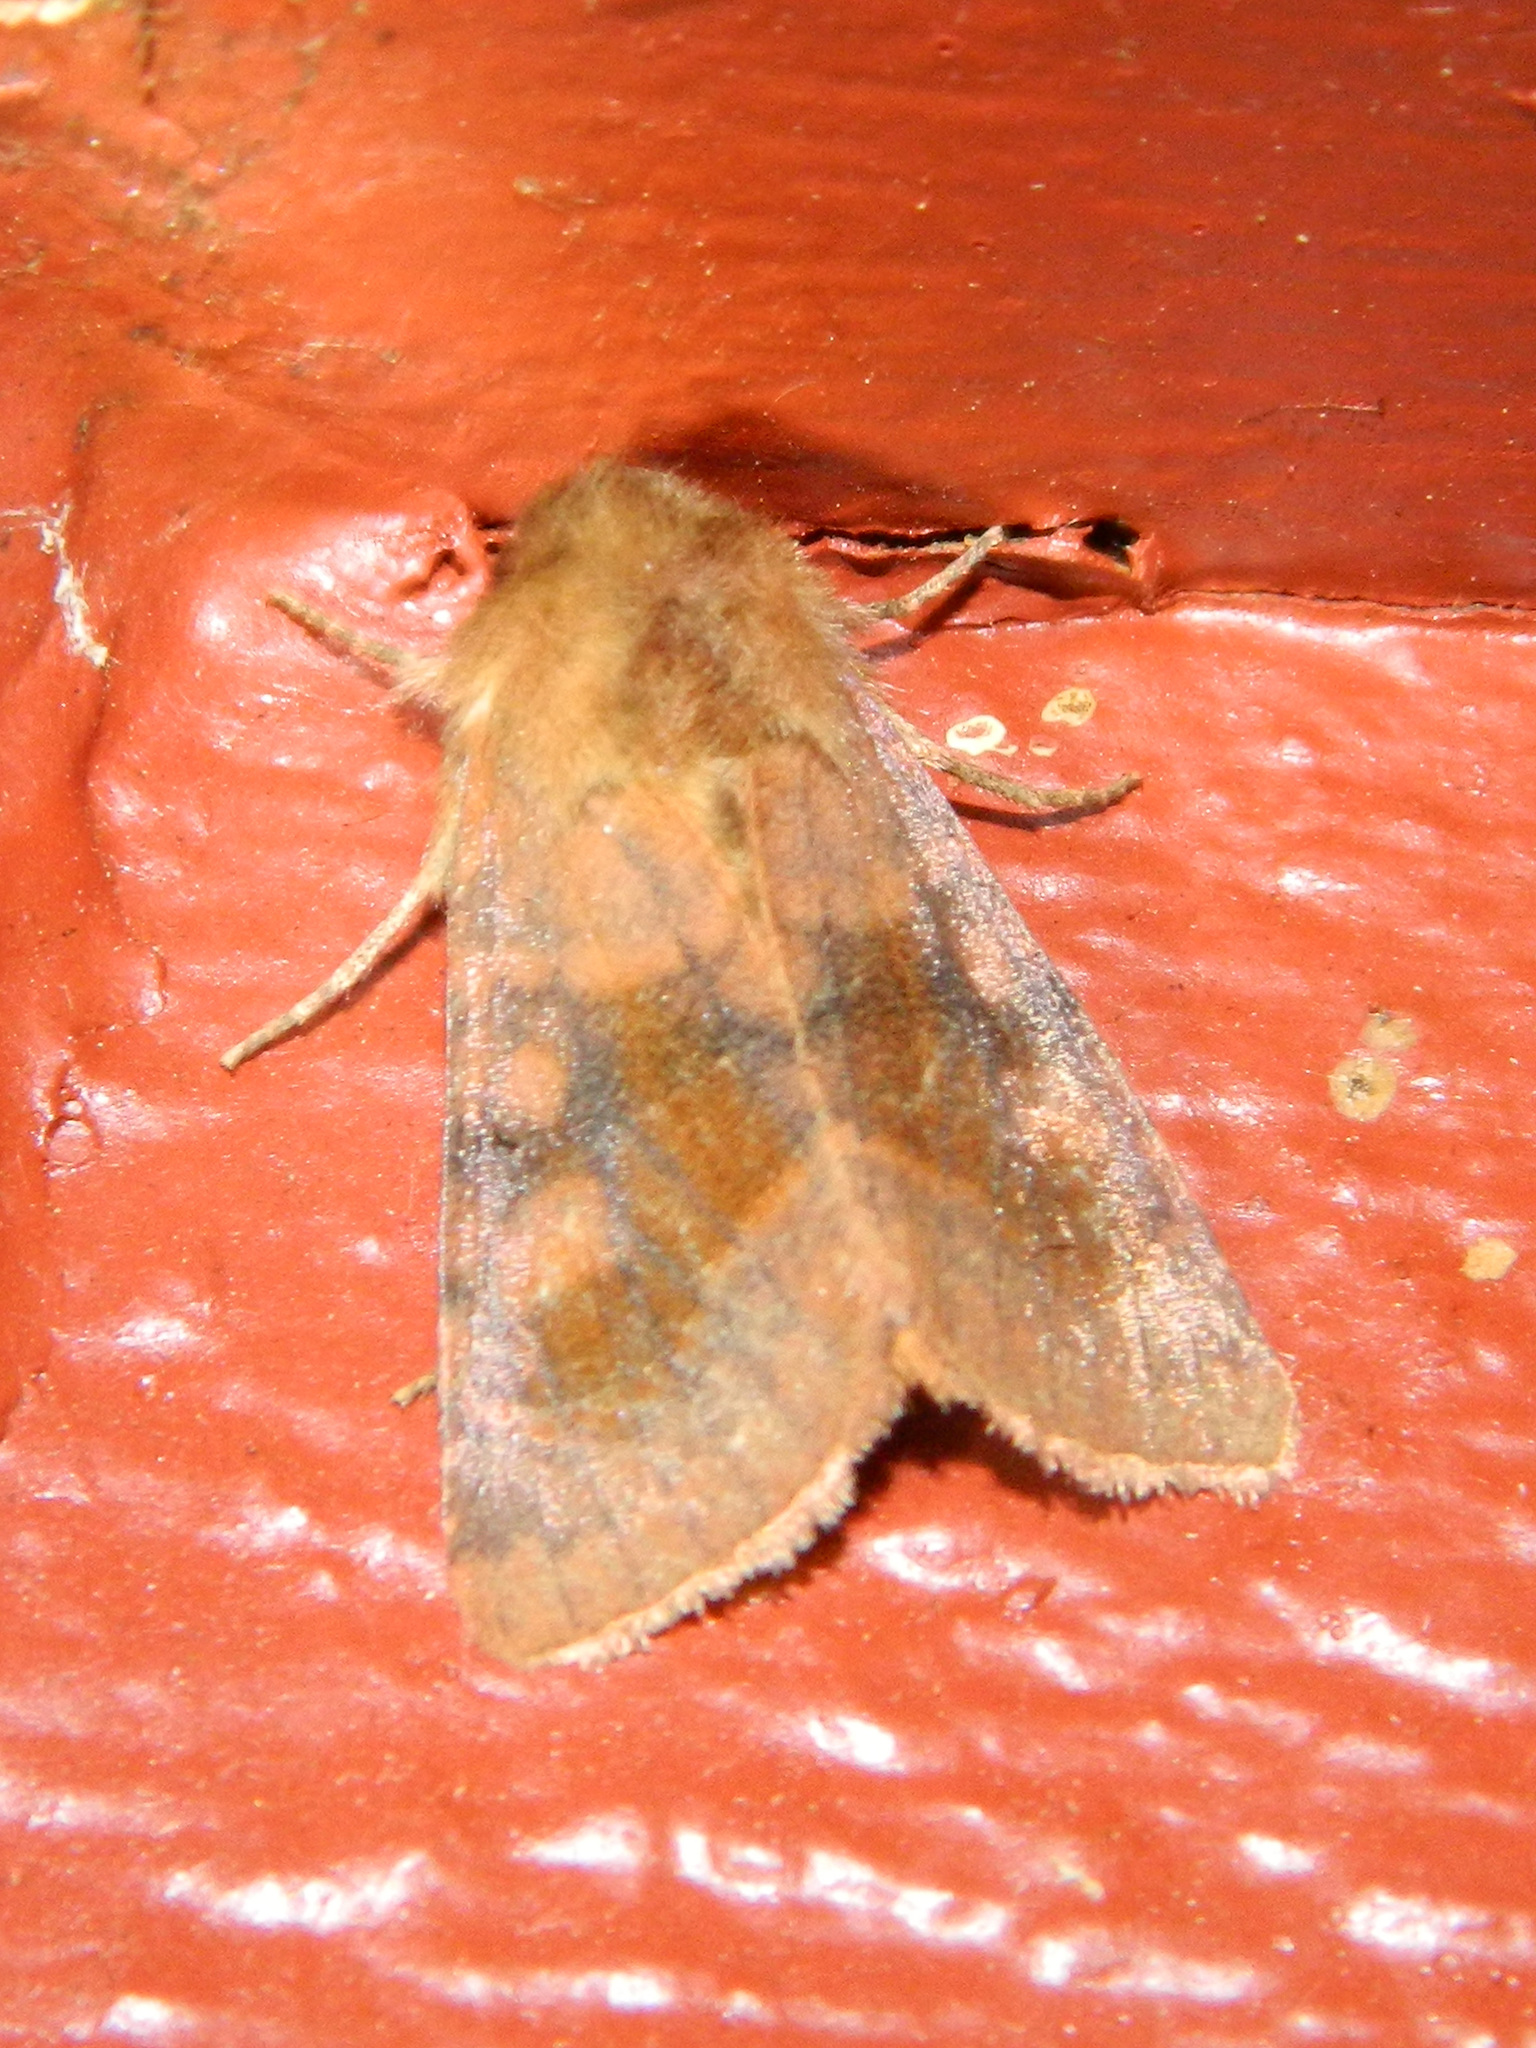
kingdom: Animalia
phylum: Arthropoda
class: Insecta
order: Lepidoptera
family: Noctuidae
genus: Nephelodes
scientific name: Nephelodes minians
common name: Bronzed cutworm
